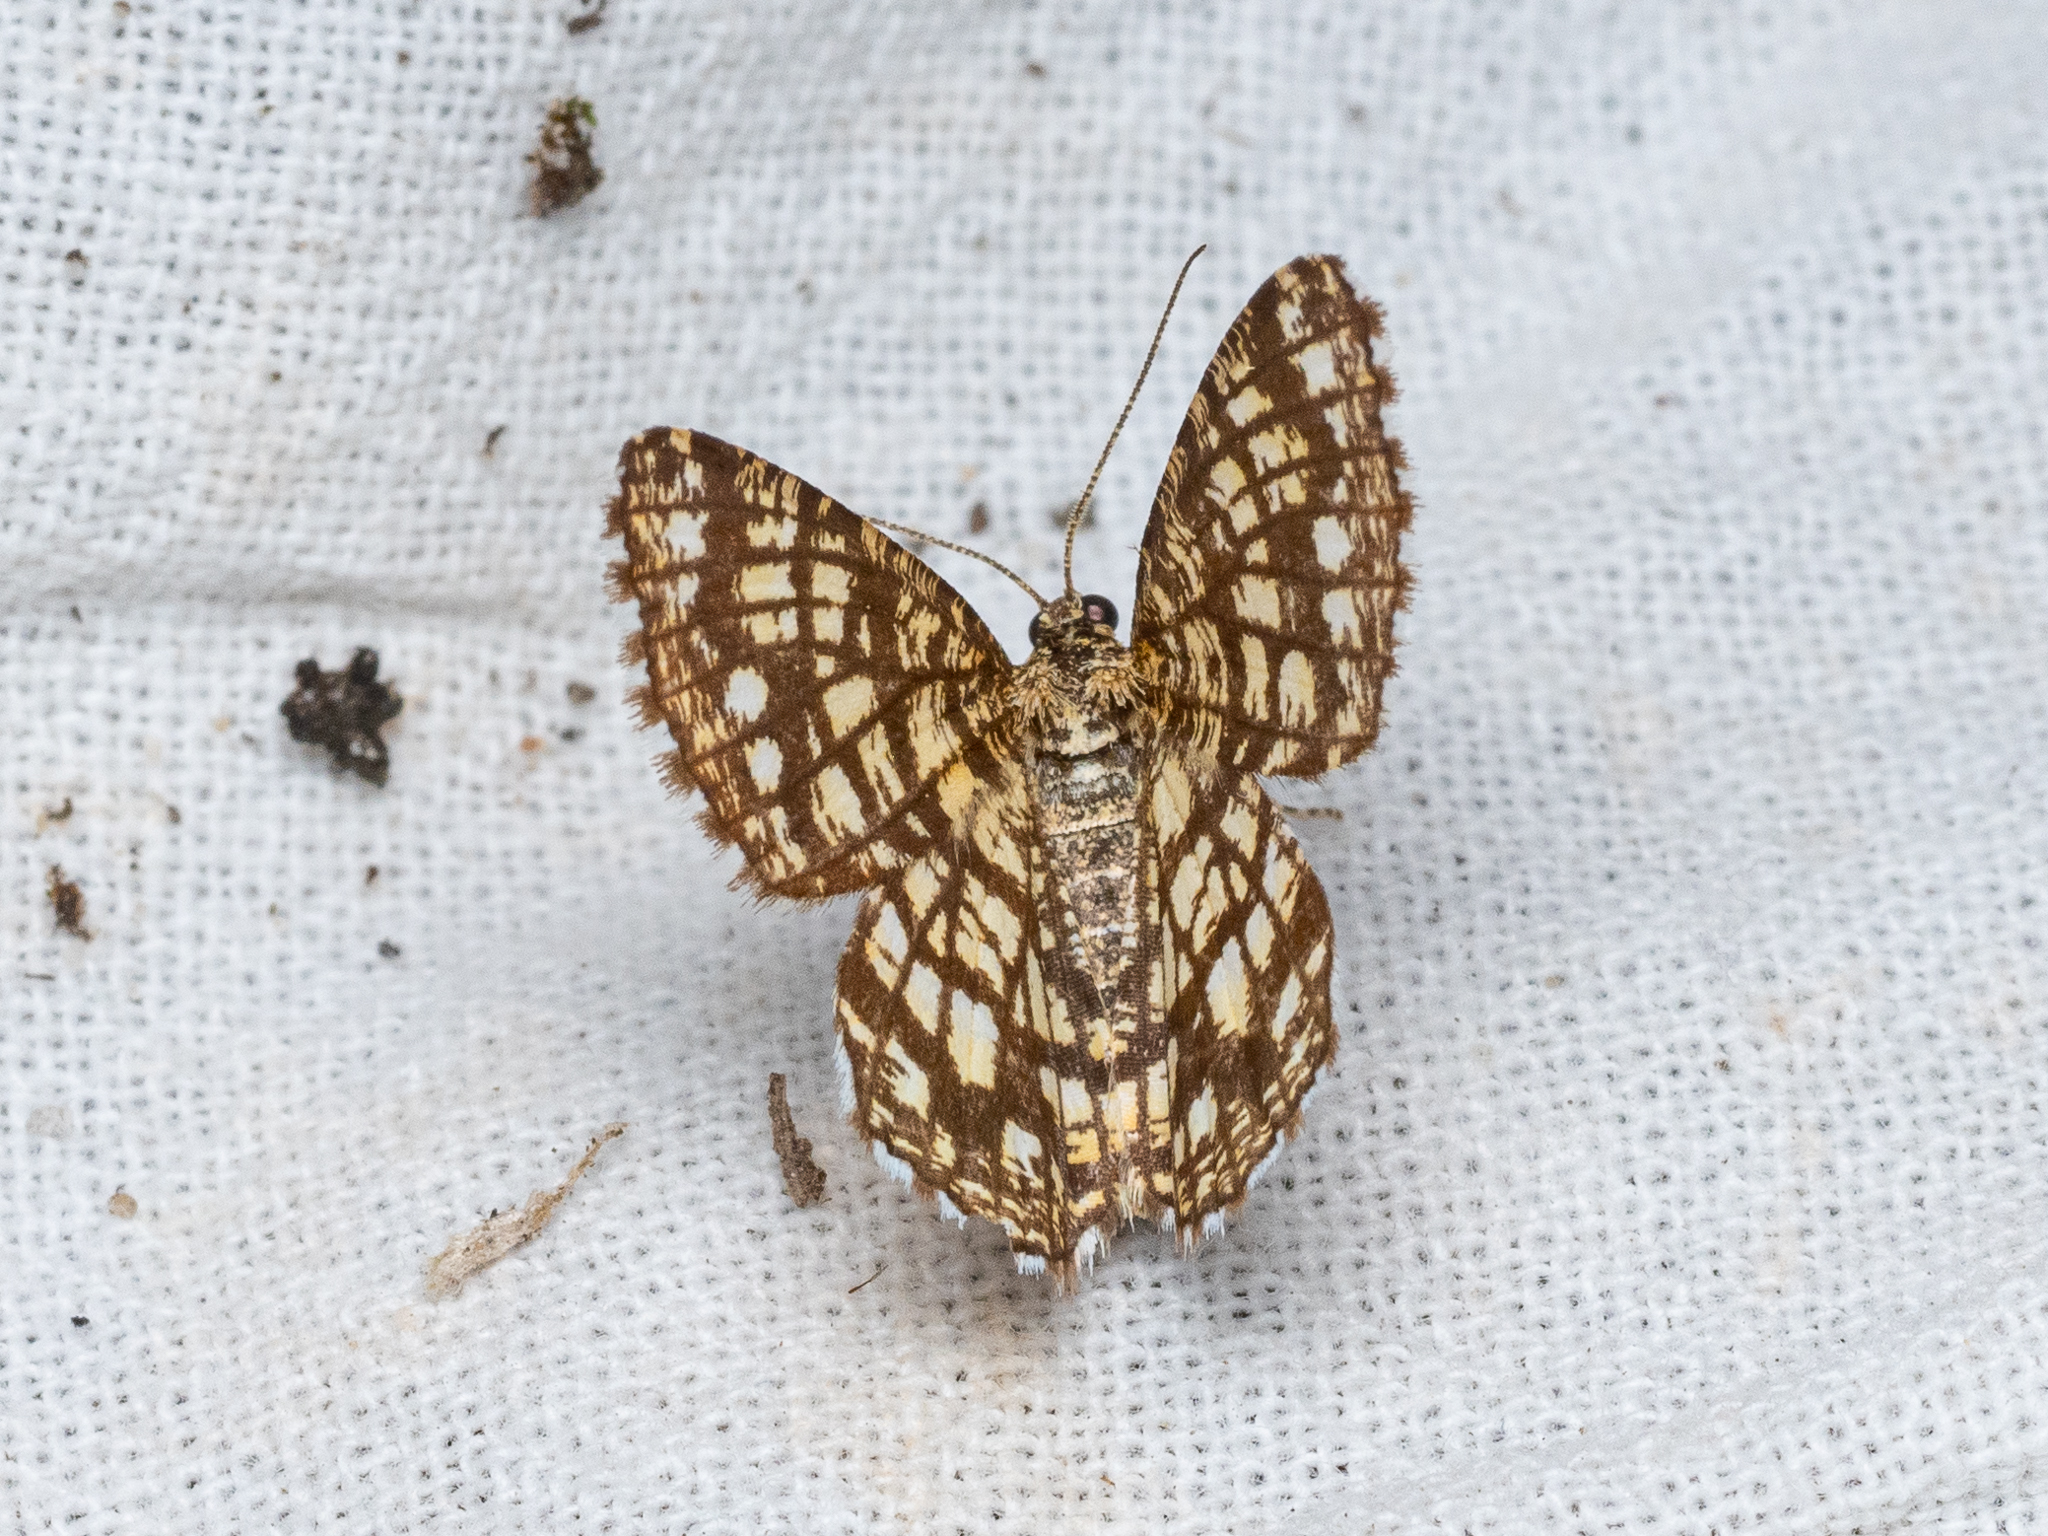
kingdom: Animalia
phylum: Arthropoda
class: Insecta
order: Lepidoptera
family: Geometridae
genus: Chiasmia
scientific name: Chiasmia clathrata
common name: Latticed heath
